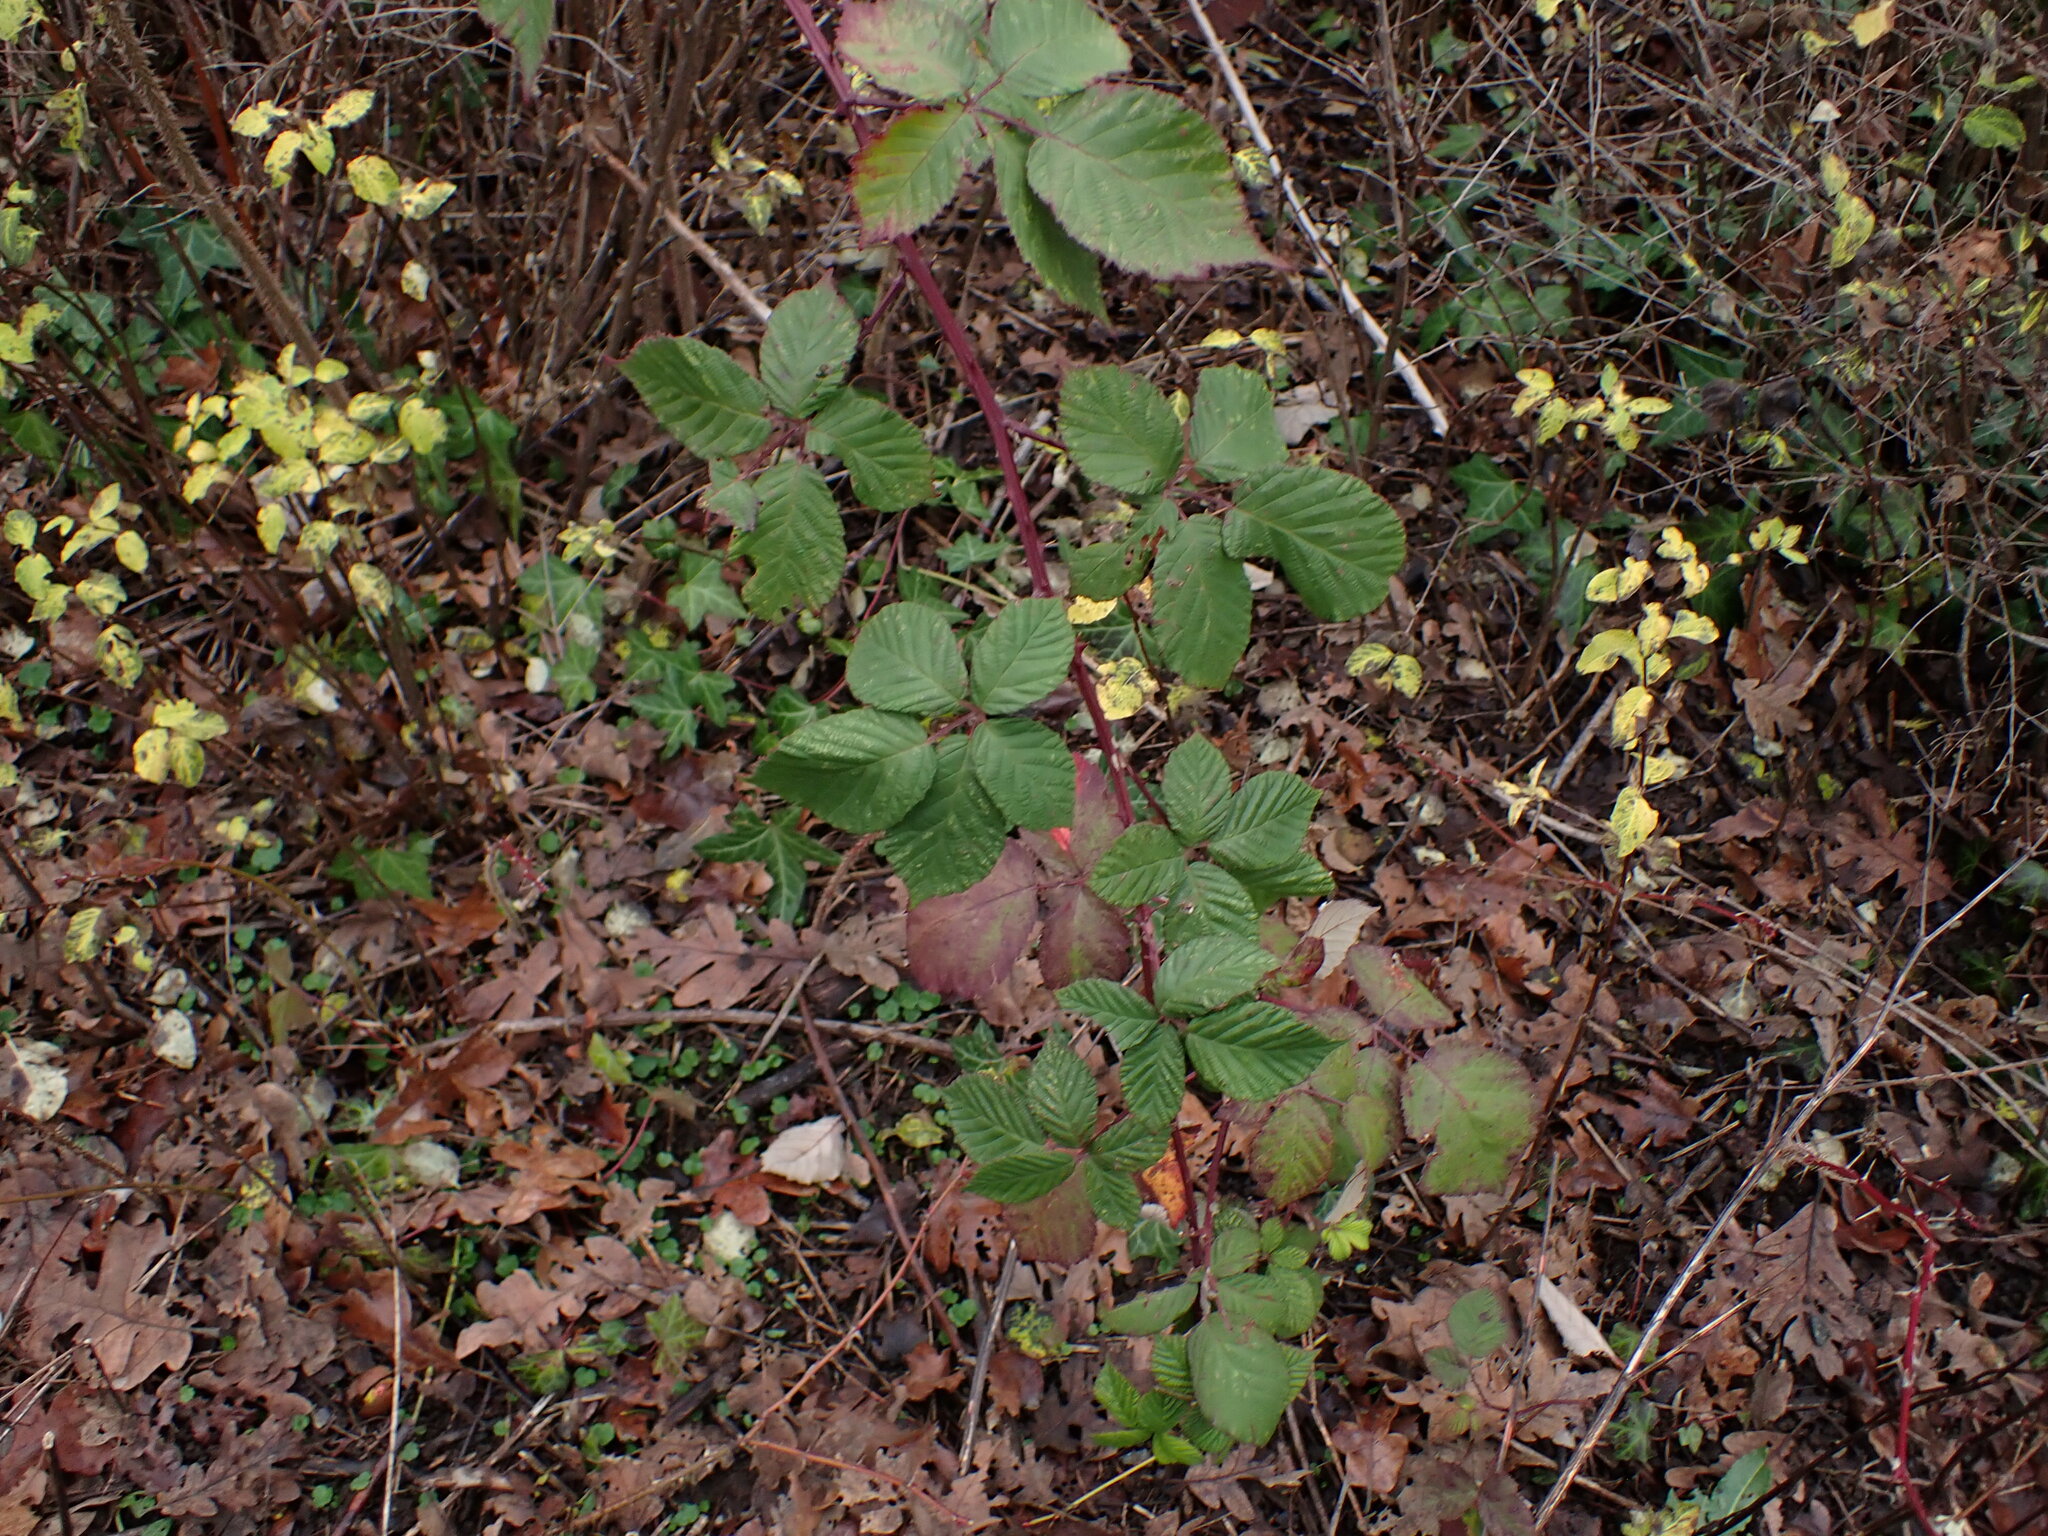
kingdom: Plantae
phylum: Tracheophyta
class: Magnoliopsida
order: Rosales
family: Rosaceae
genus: Rubus
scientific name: Rubus bifrons
